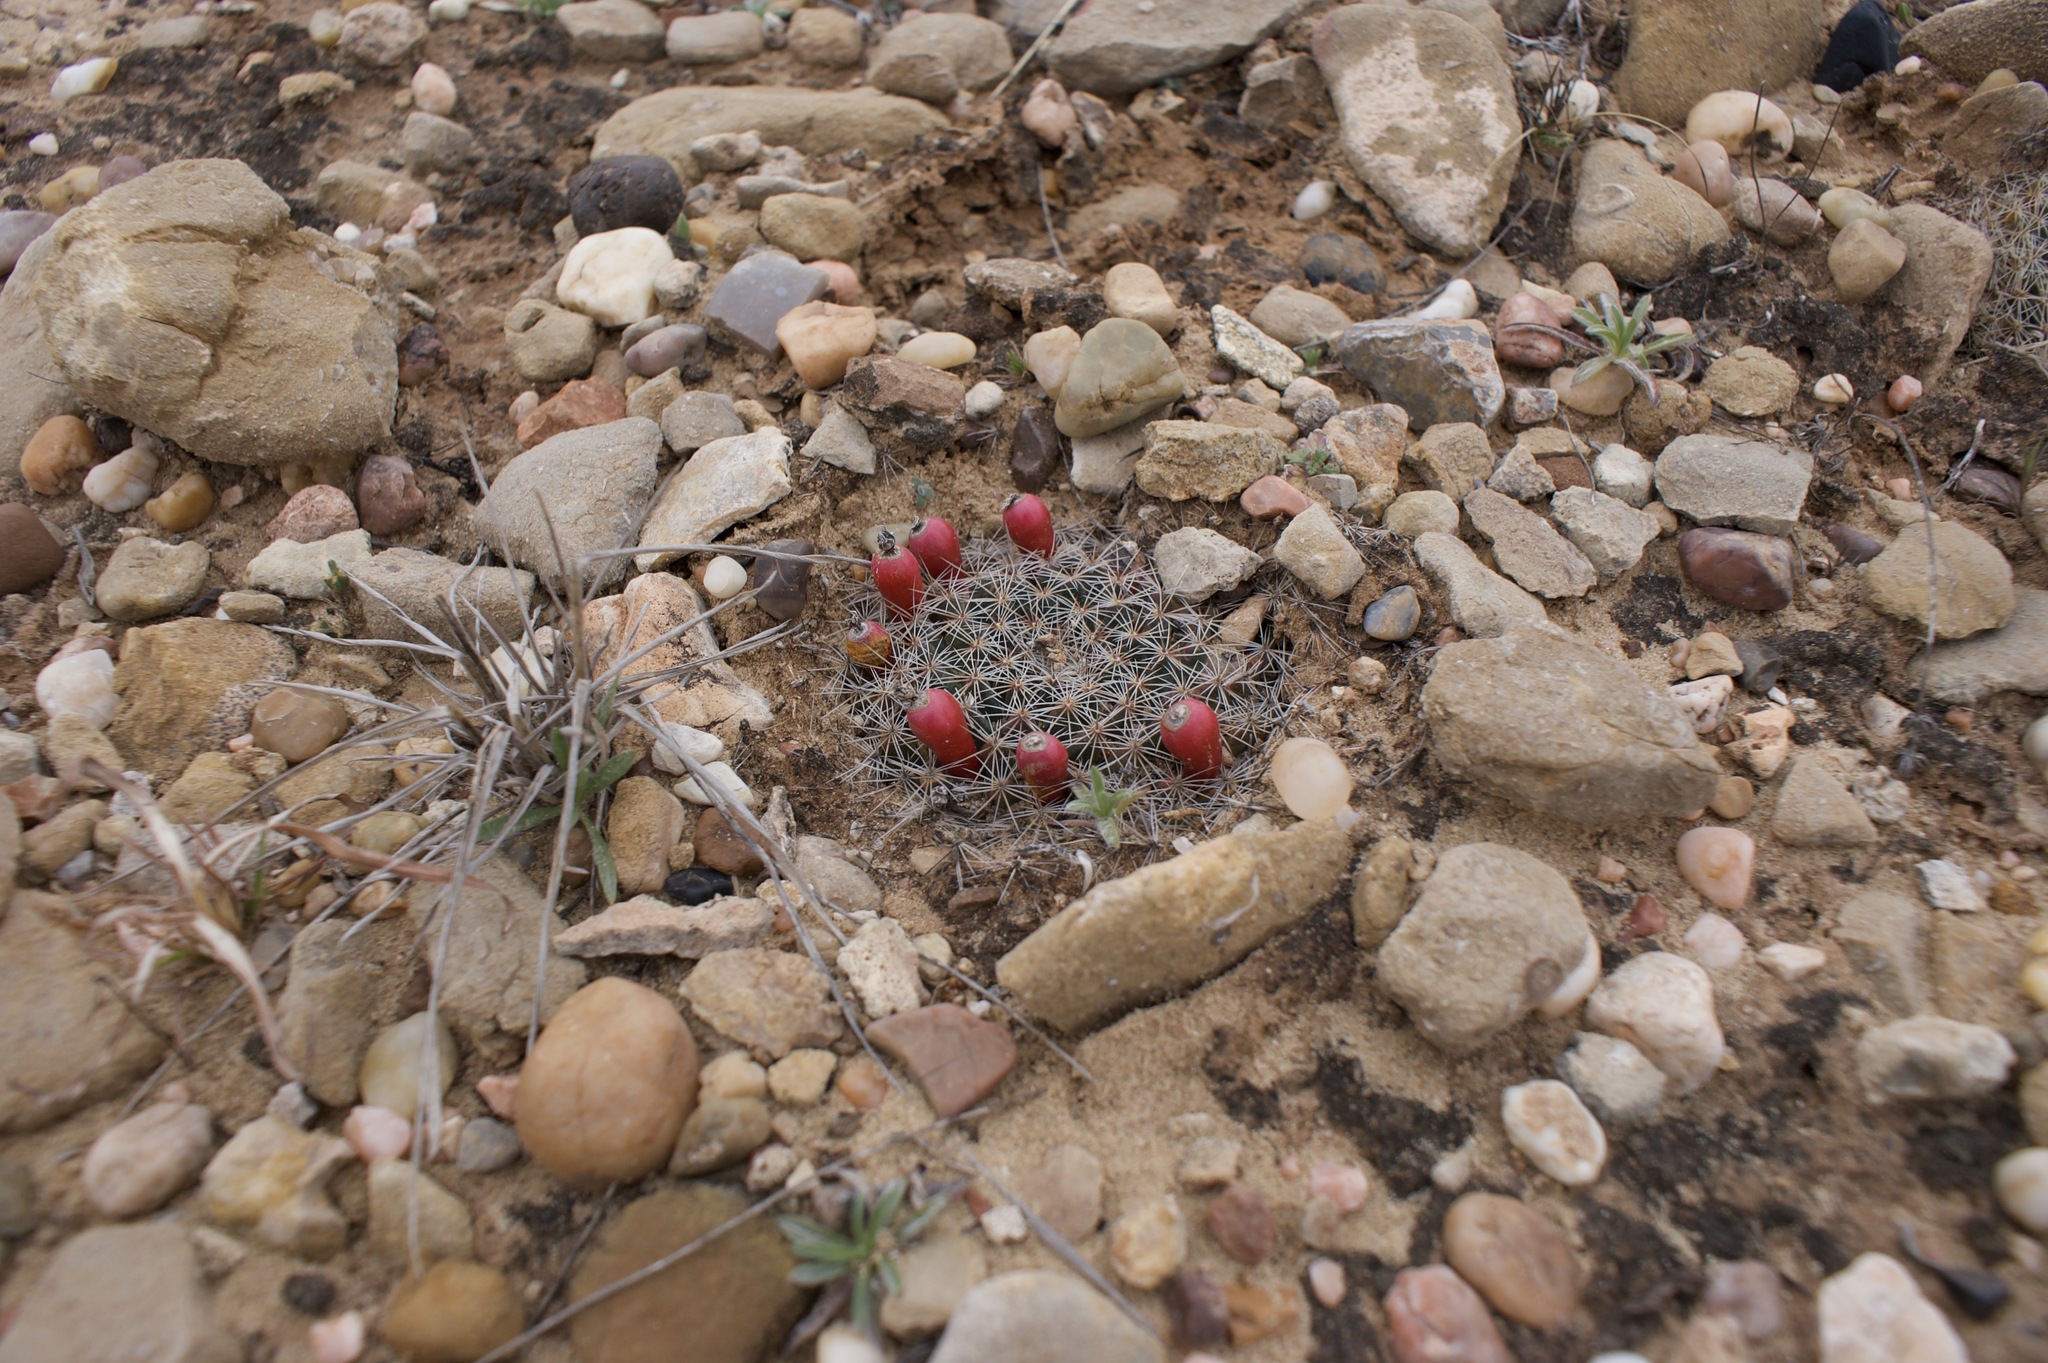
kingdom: Plantae
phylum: Tracheophyta
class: Magnoliopsida
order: Caryophyllales
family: Cactaceae
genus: Mammillaria
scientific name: Mammillaria heyderi
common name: Little nipple cactus
